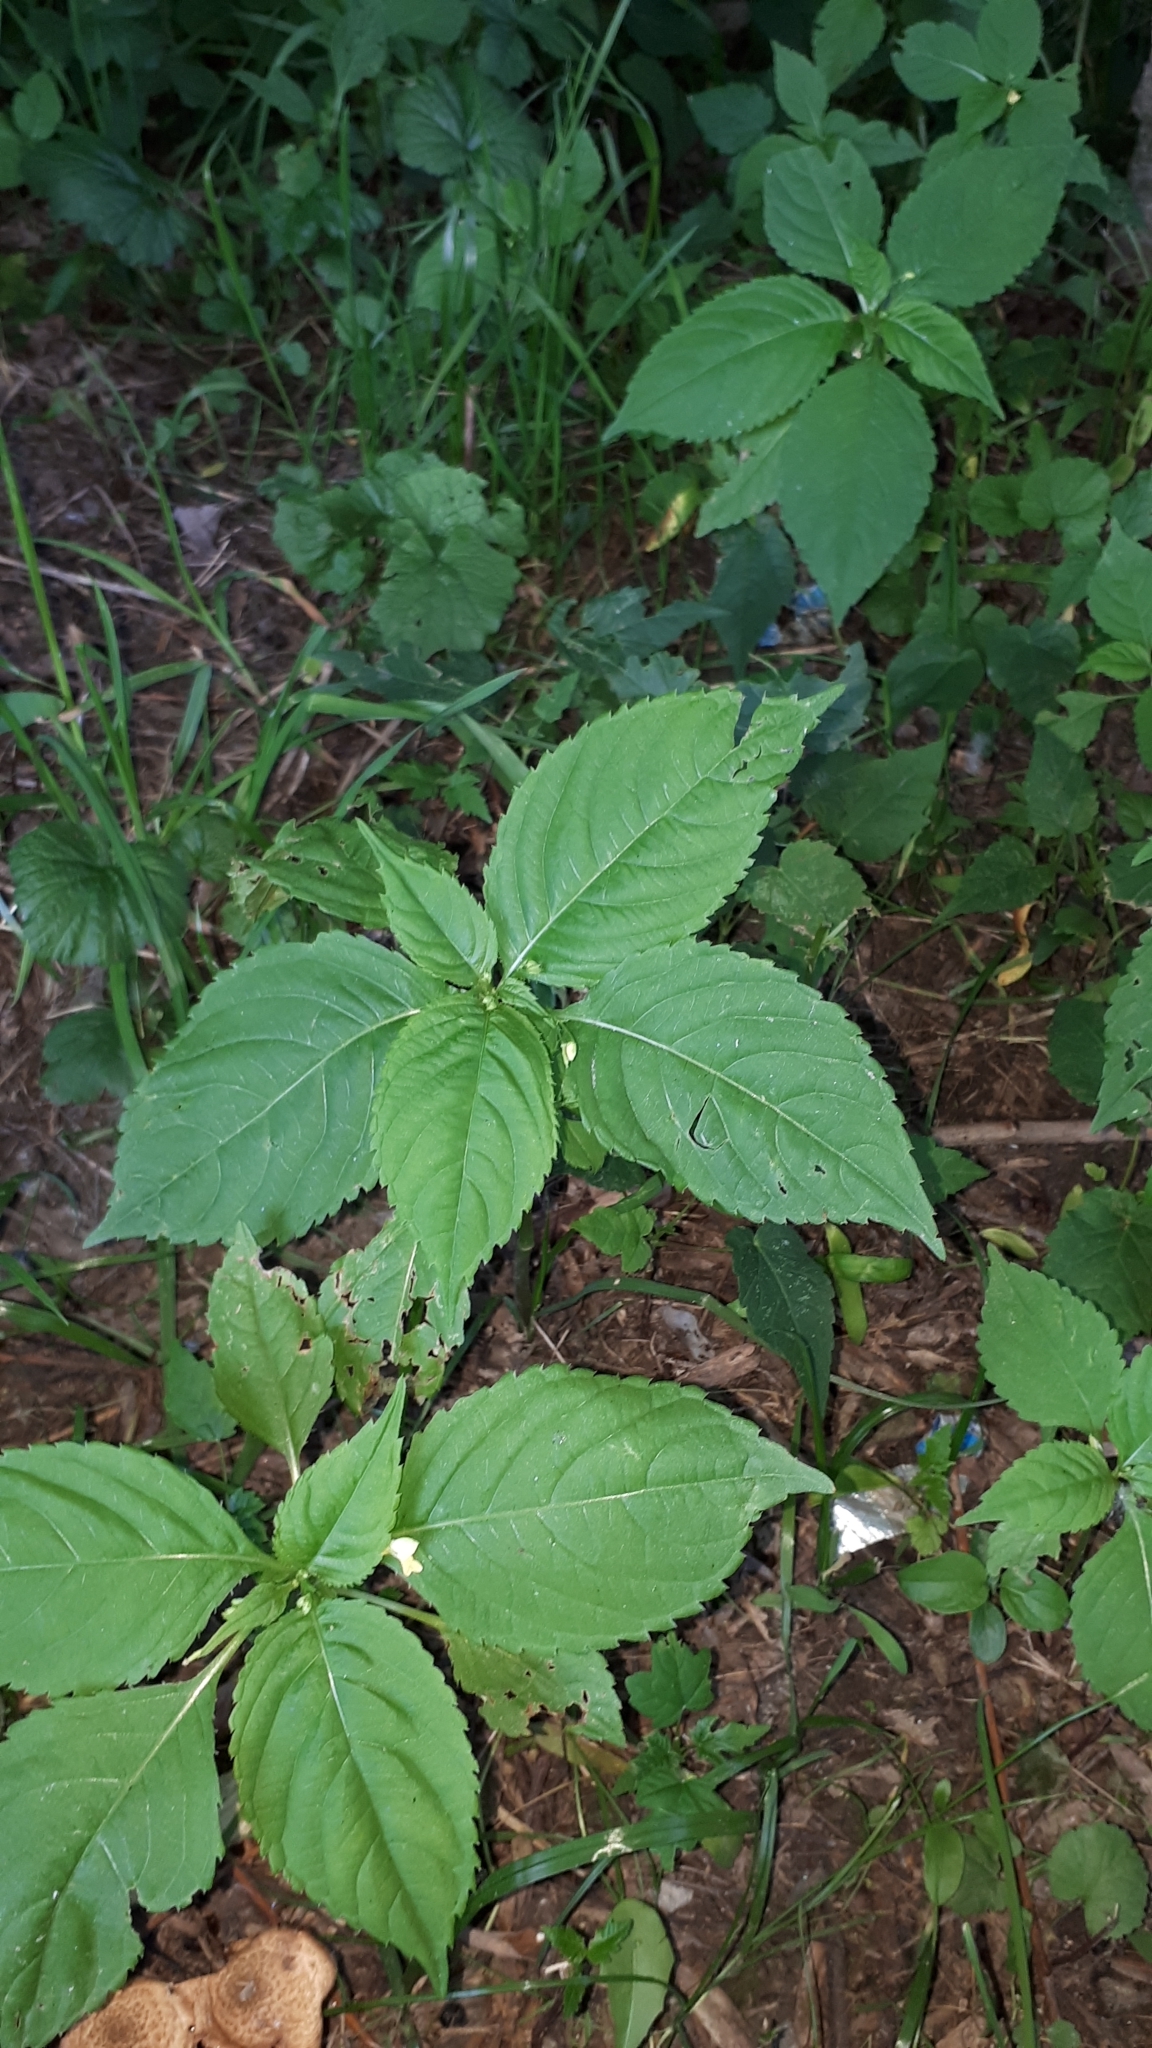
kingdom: Plantae
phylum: Tracheophyta
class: Magnoliopsida
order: Ericales
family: Balsaminaceae
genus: Impatiens
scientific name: Impatiens parviflora
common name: Small balsam
